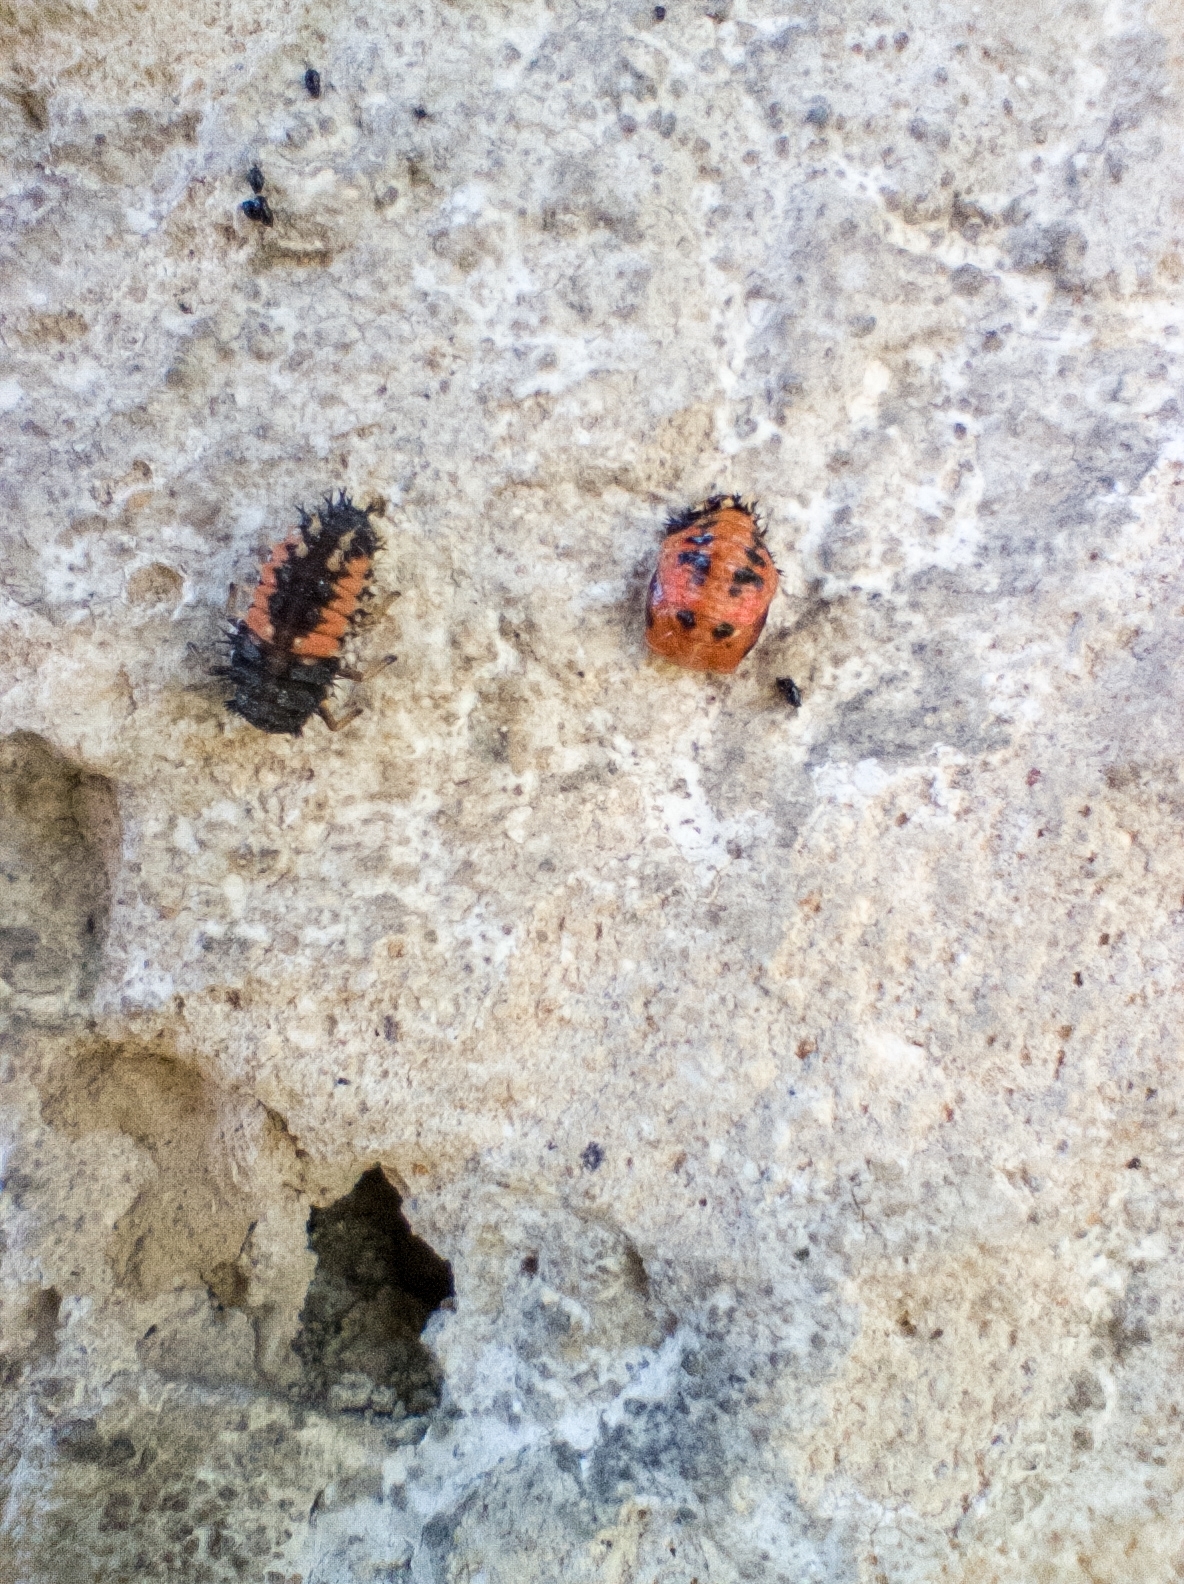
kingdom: Animalia
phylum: Arthropoda
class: Insecta
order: Coleoptera
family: Coccinellidae
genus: Harmonia
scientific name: Harmonia axyridis
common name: Harlequin ladybird
